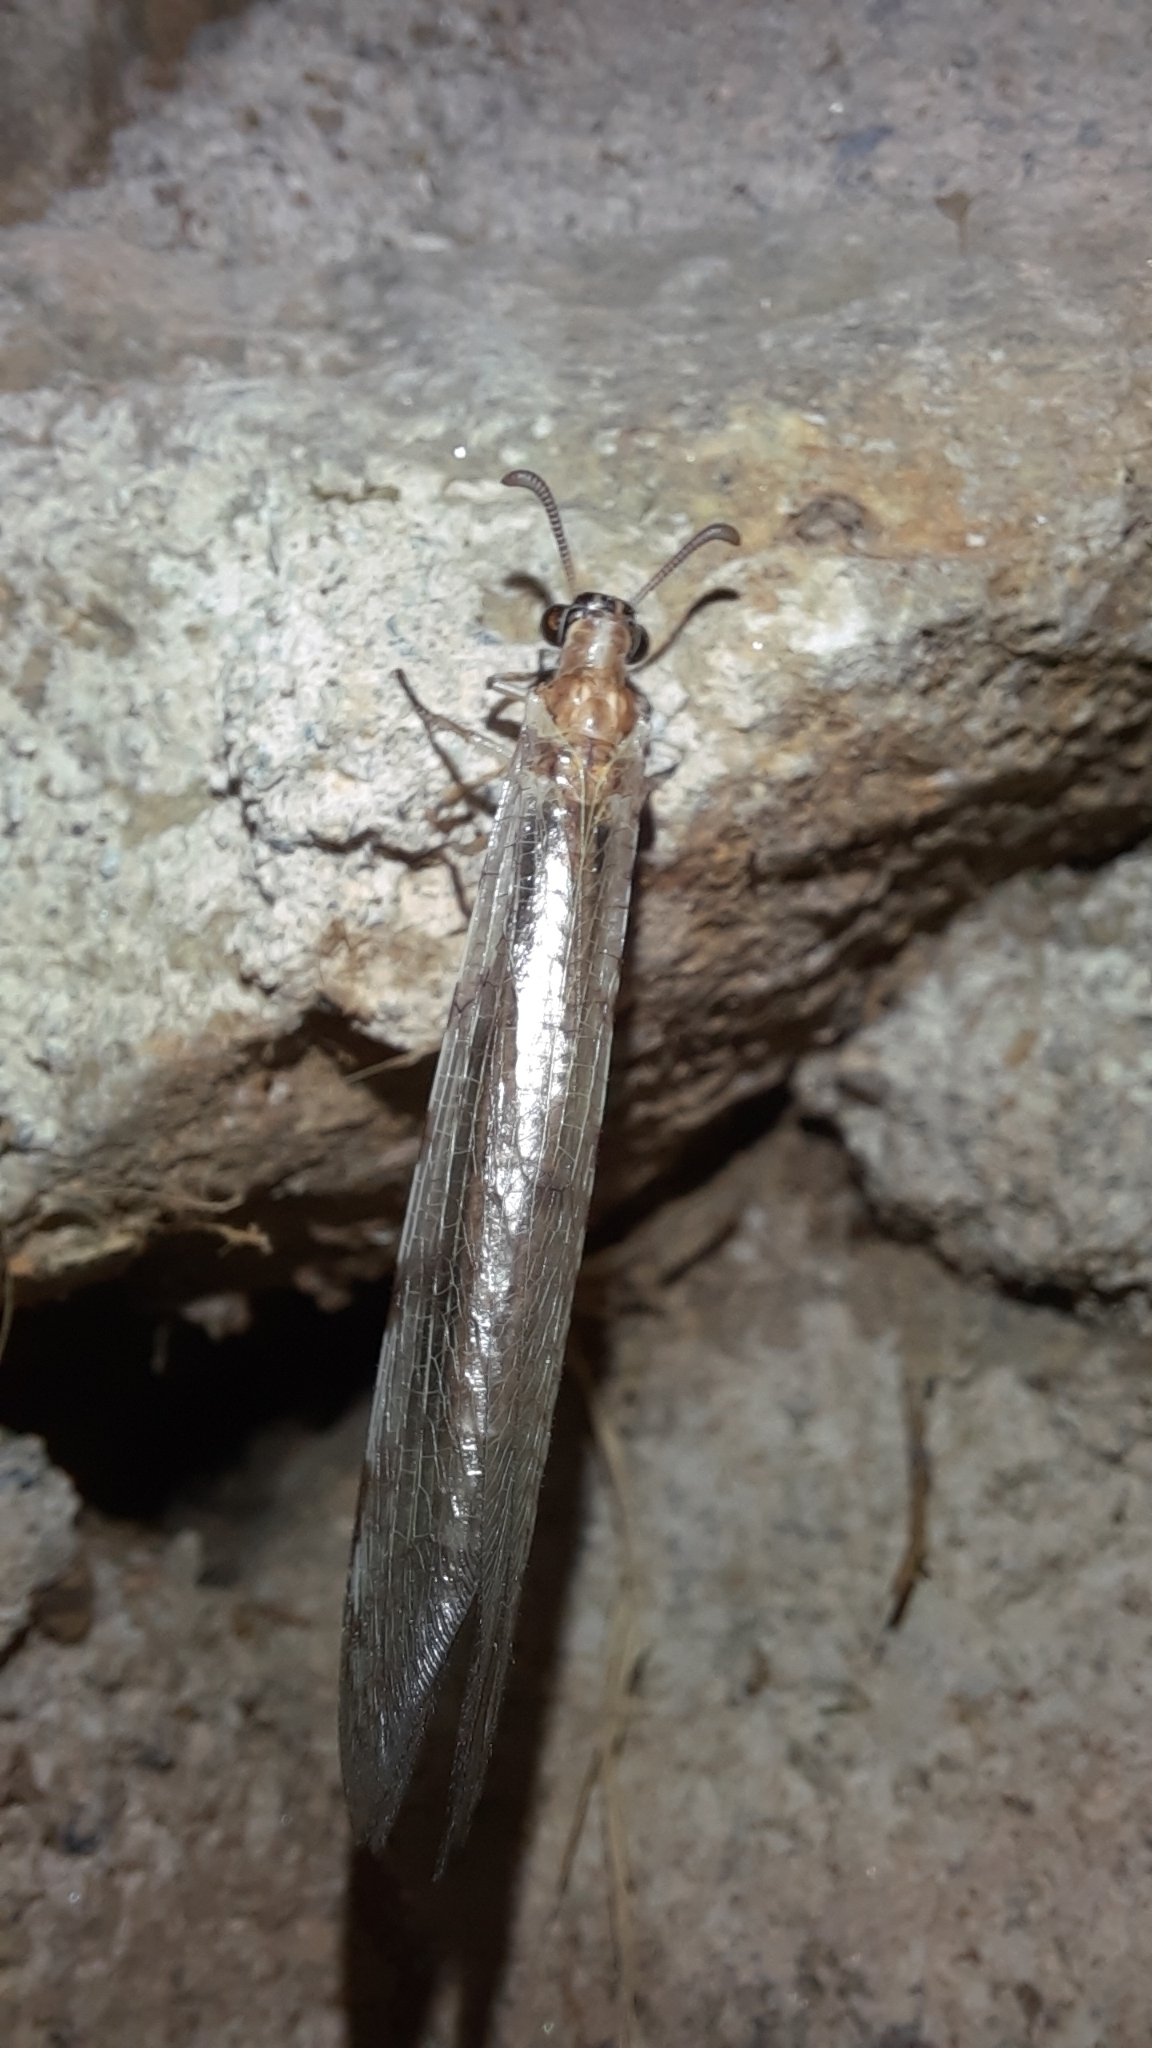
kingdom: Animalia
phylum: Arthropoda
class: Insecta
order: Neuroptera
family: Myrmeleontidae
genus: Euroleon
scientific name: Euroleon nostras
